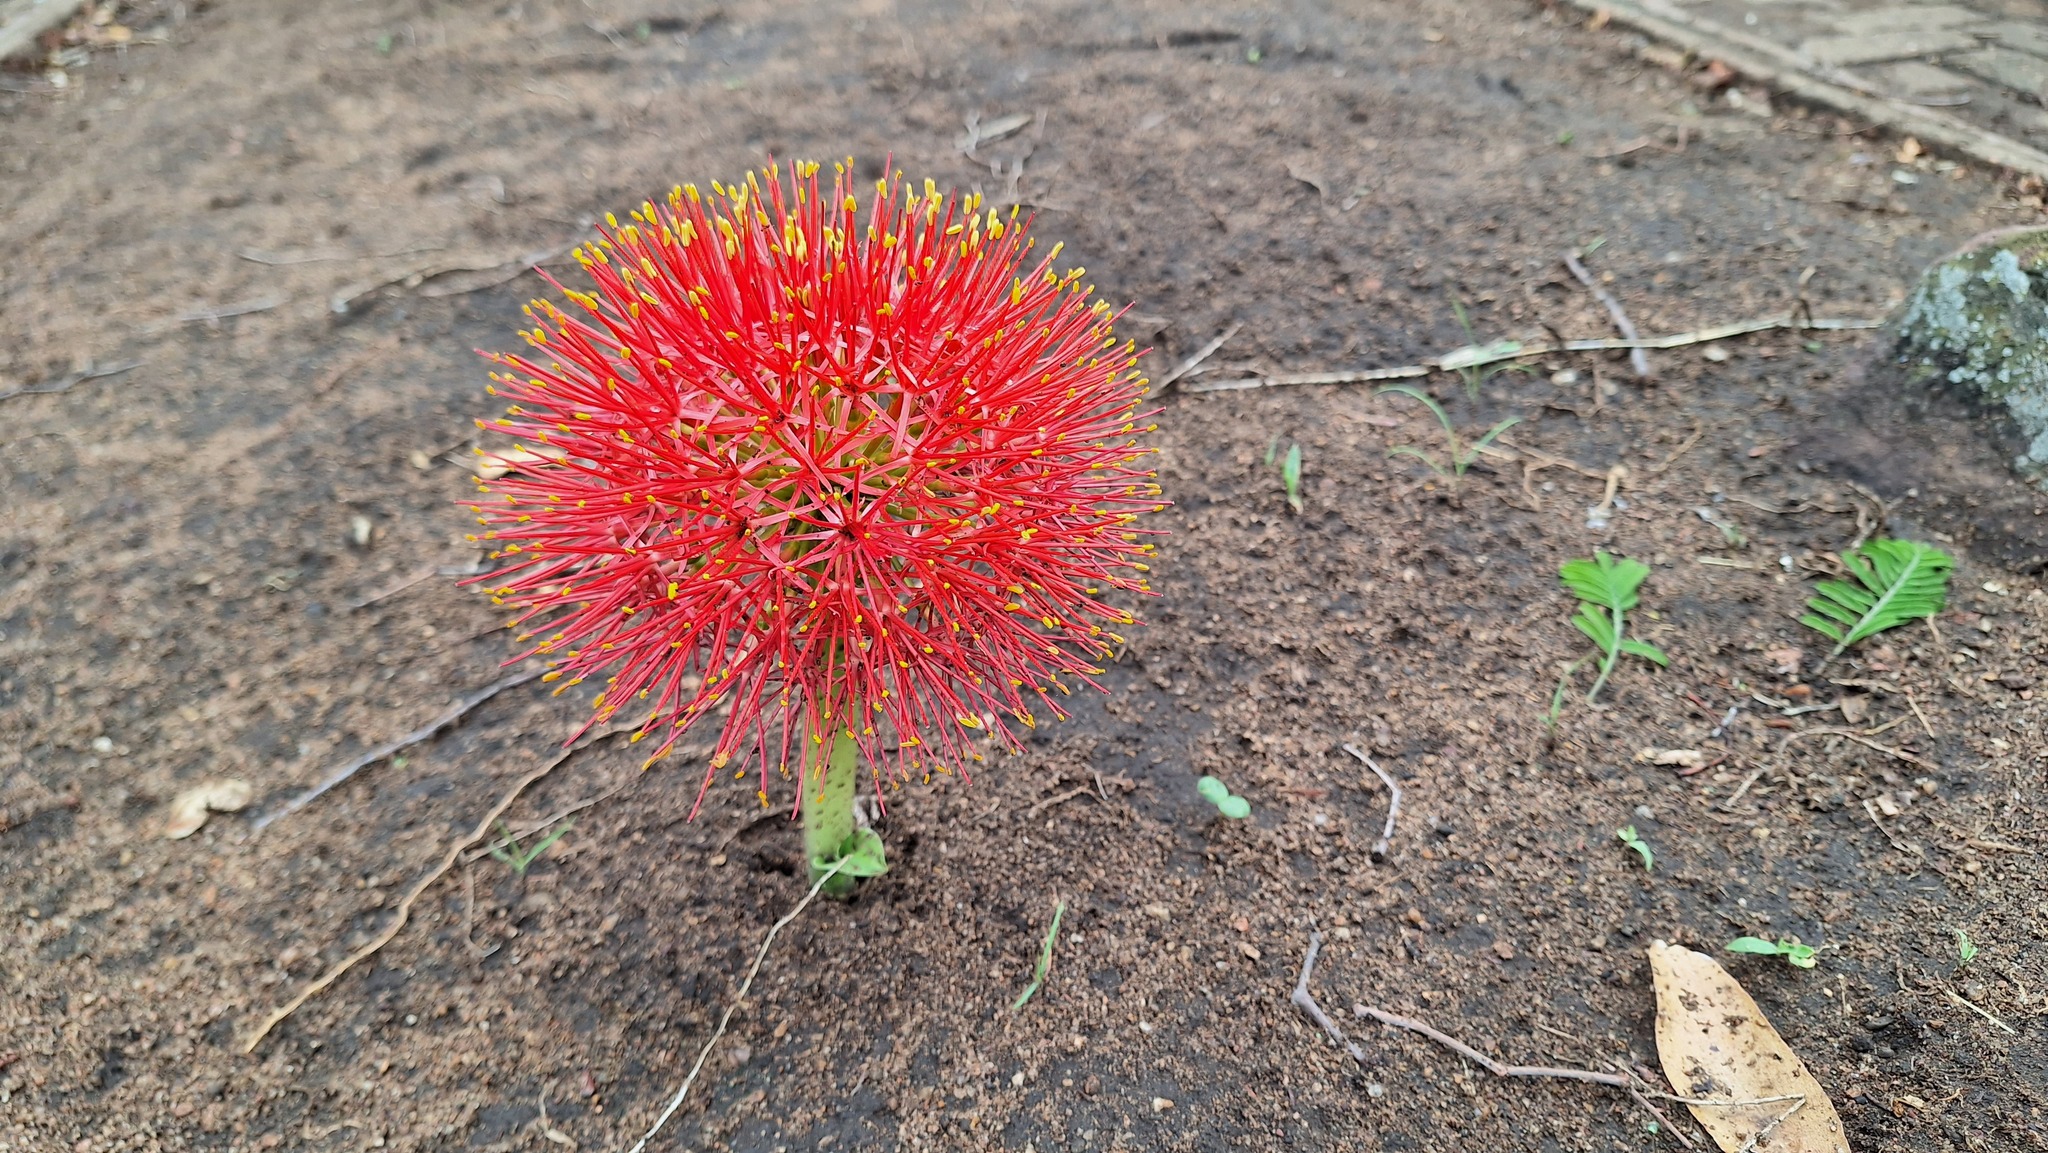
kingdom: Plantae
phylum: Tracheophyta
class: Liliopsida
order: Asparagales
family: Amaryllidaceae
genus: Scadoxus
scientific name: Scadoxus multiflorus
